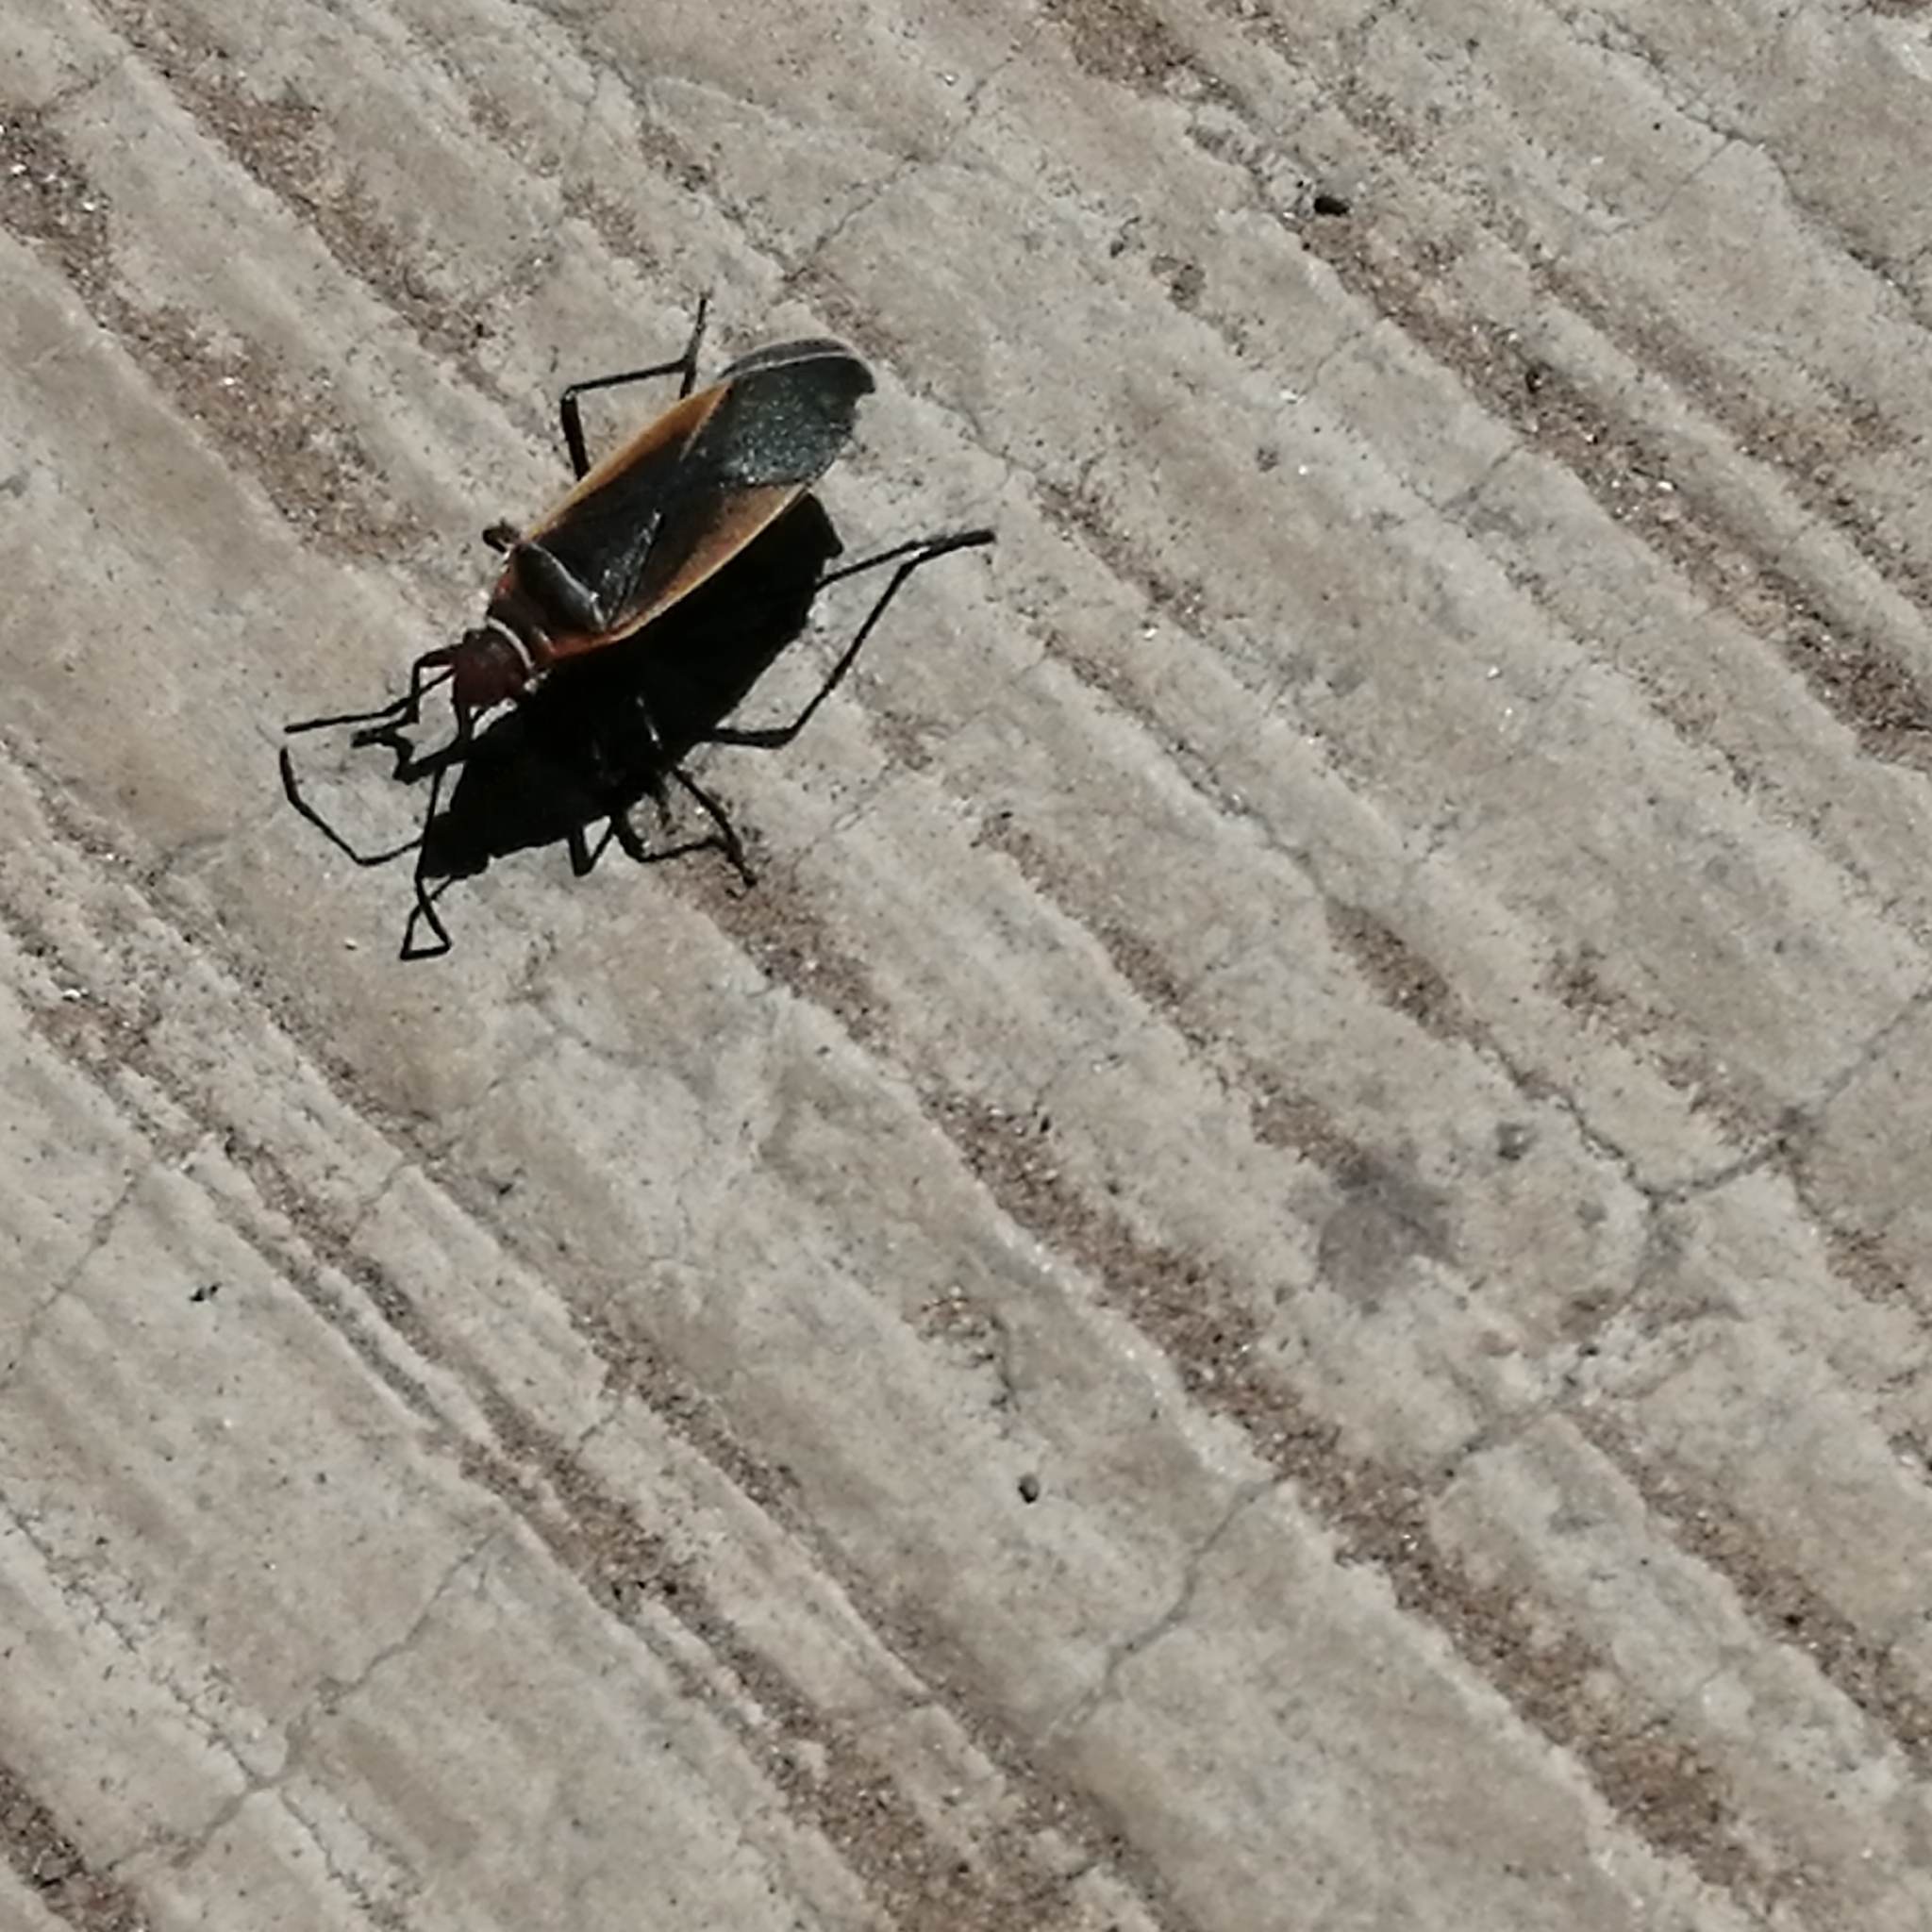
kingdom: Animalia
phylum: Arthropoda
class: Insecta
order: Hemiptera
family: Pyrrhocoridae
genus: Dysdercus
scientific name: Dysdercus mimulus
